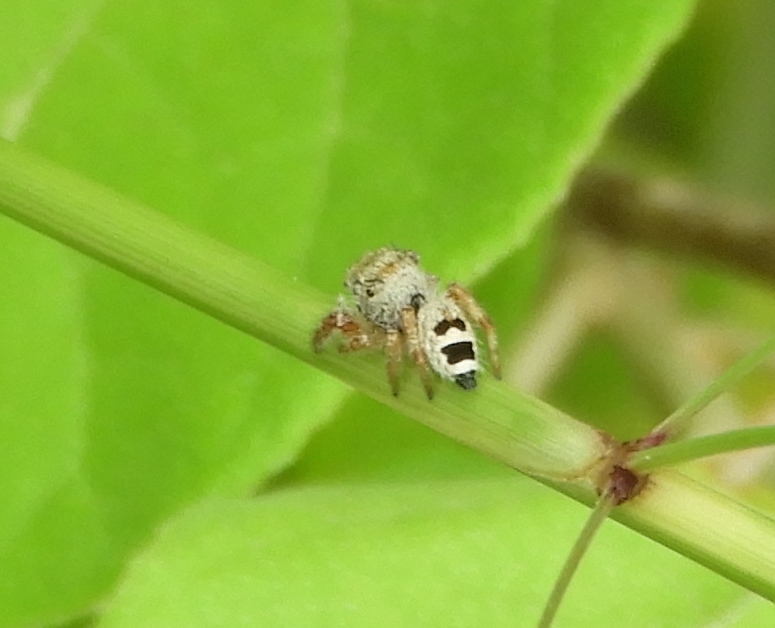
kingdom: Animalia
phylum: Arthropoda
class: Arachnida
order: Araneae
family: Salticidae
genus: Phidippus
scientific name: Phidippus pacosauritus
